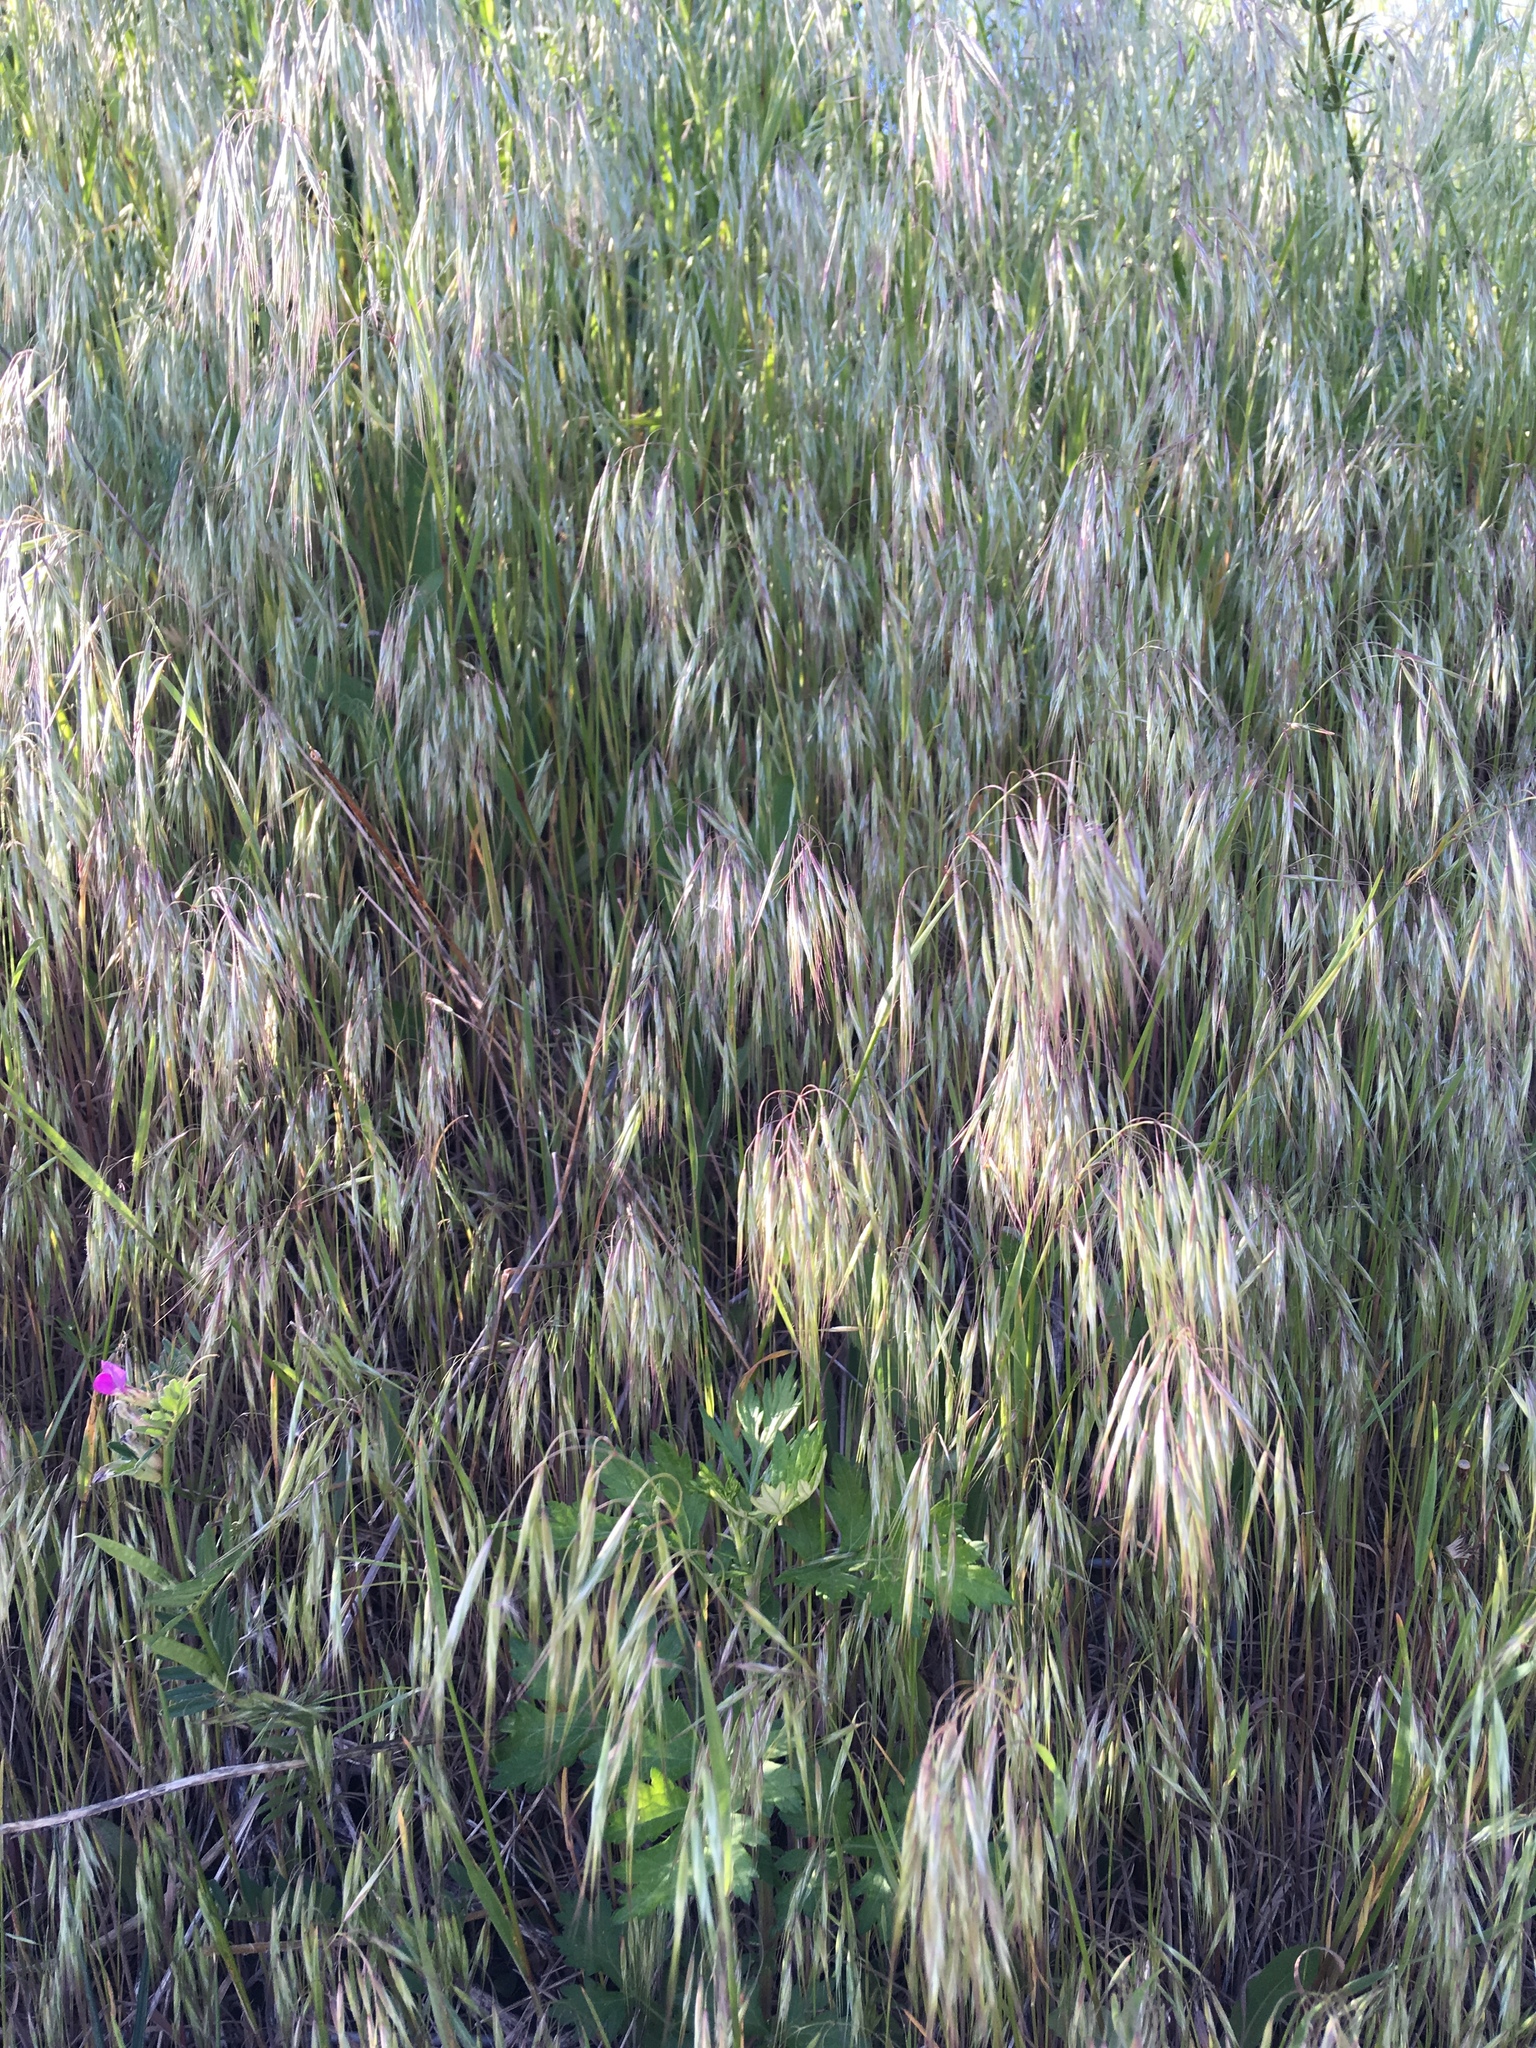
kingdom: Plantae
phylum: Tracheophyta
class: Liliopsida
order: Poales
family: Poaceae
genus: Bromus
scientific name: Bromus tectorum
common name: Cheatgrass
